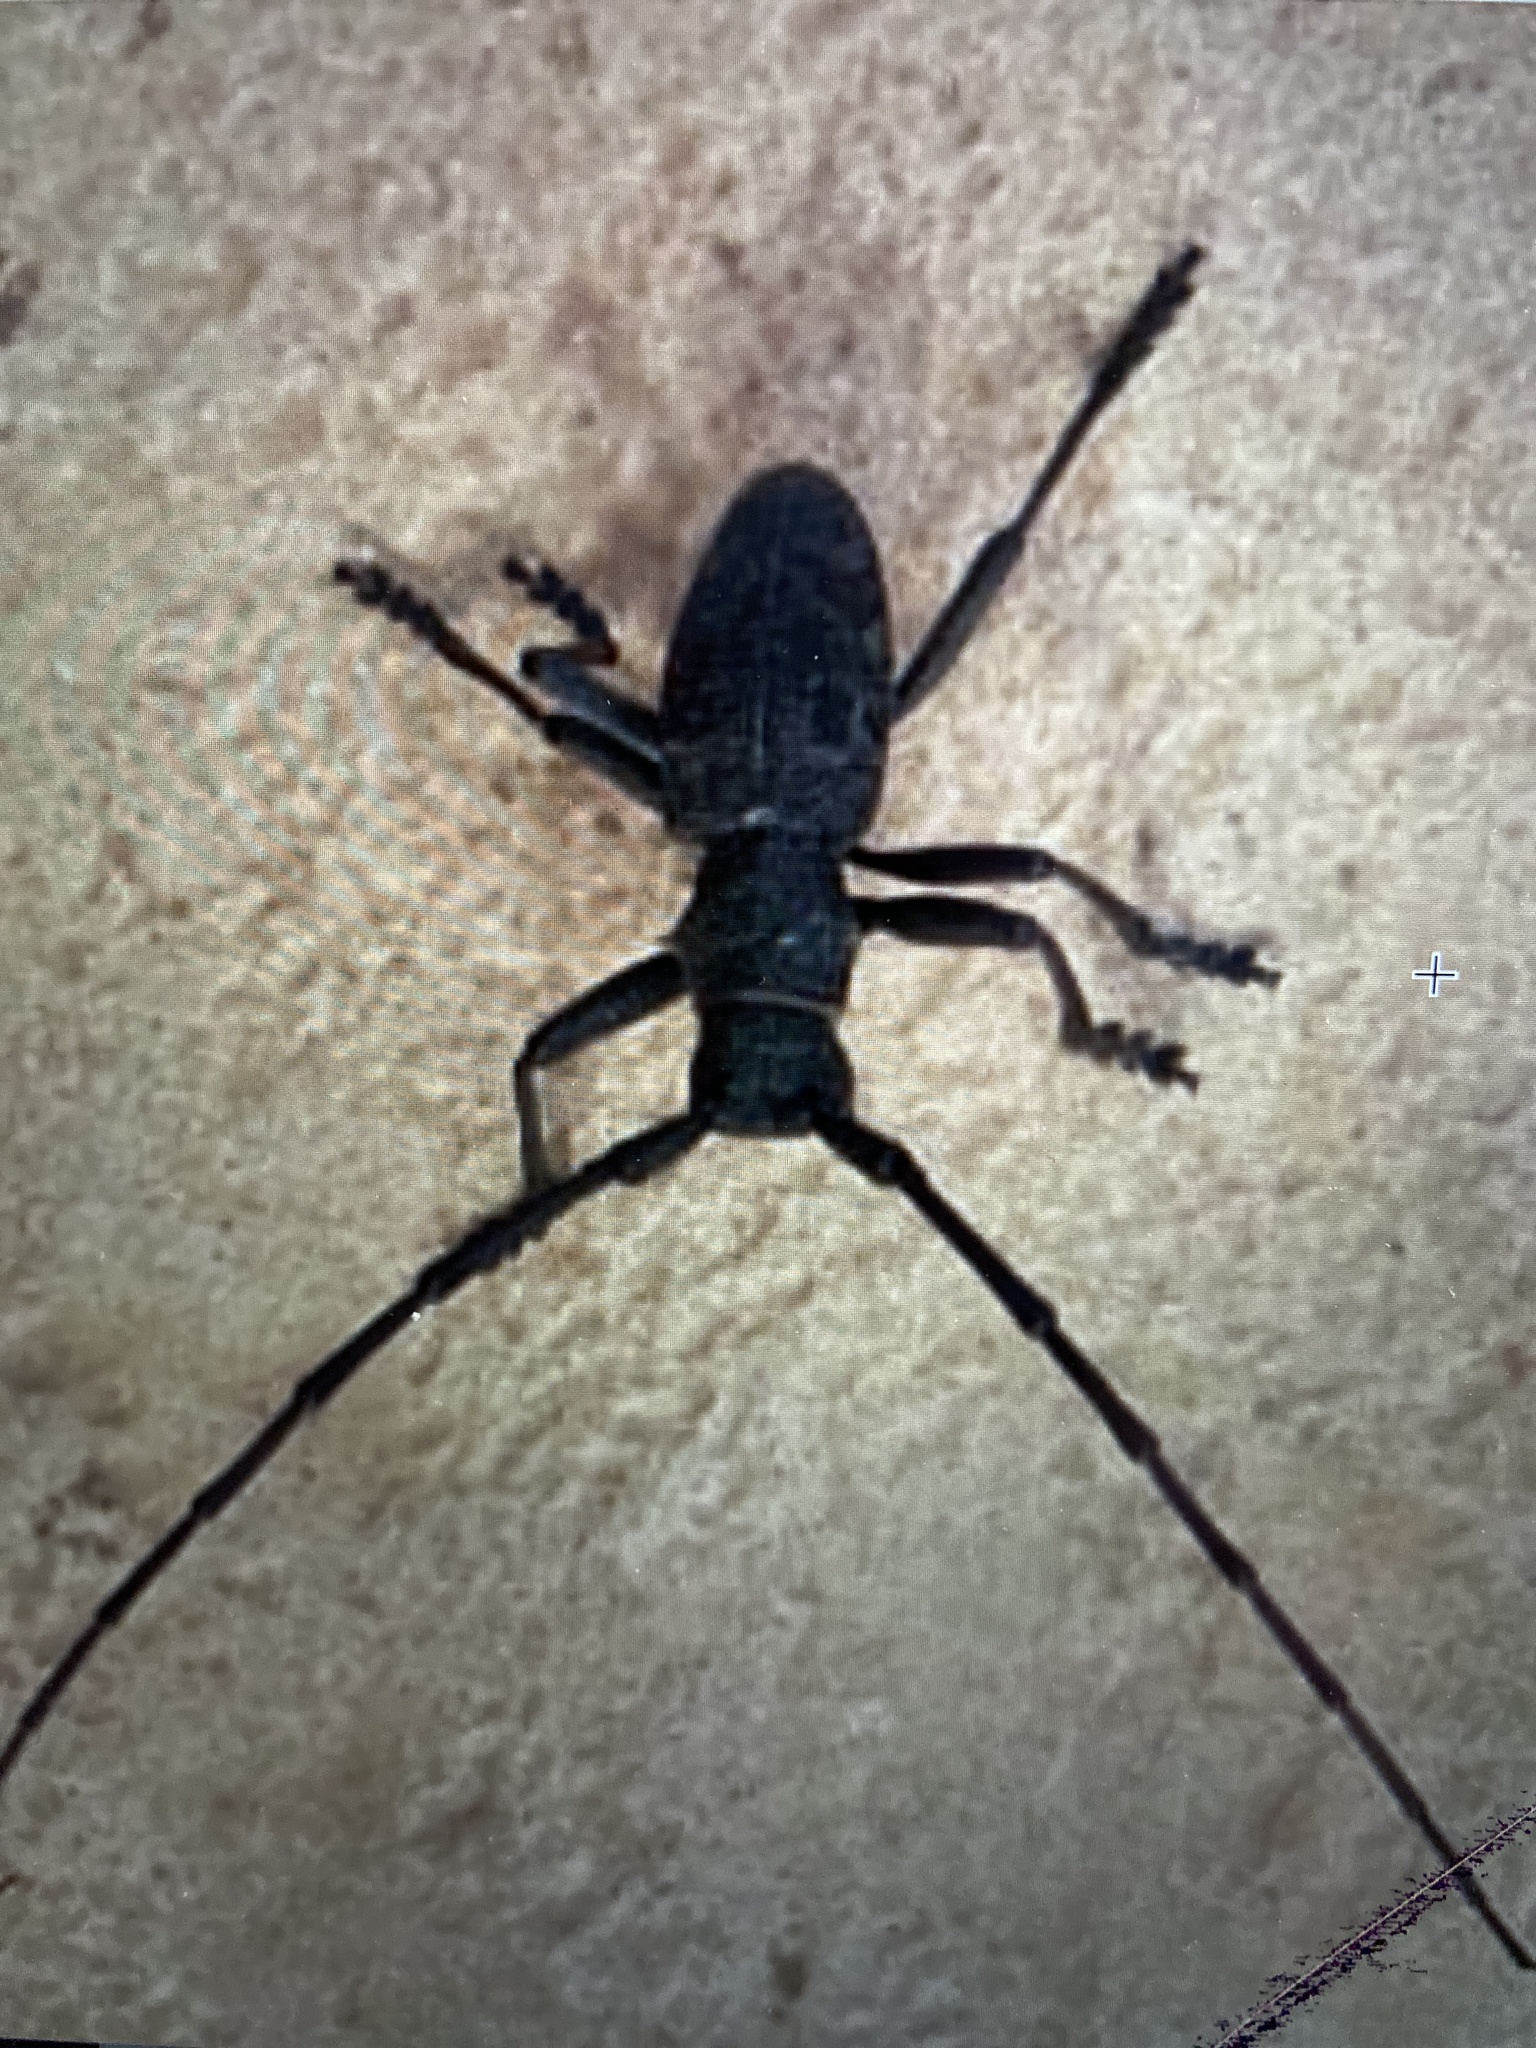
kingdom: Animalia
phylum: Arthropoda
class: Insecta
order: Coleoptera
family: Cerambycidae
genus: Morimus
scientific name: Morimus asper
